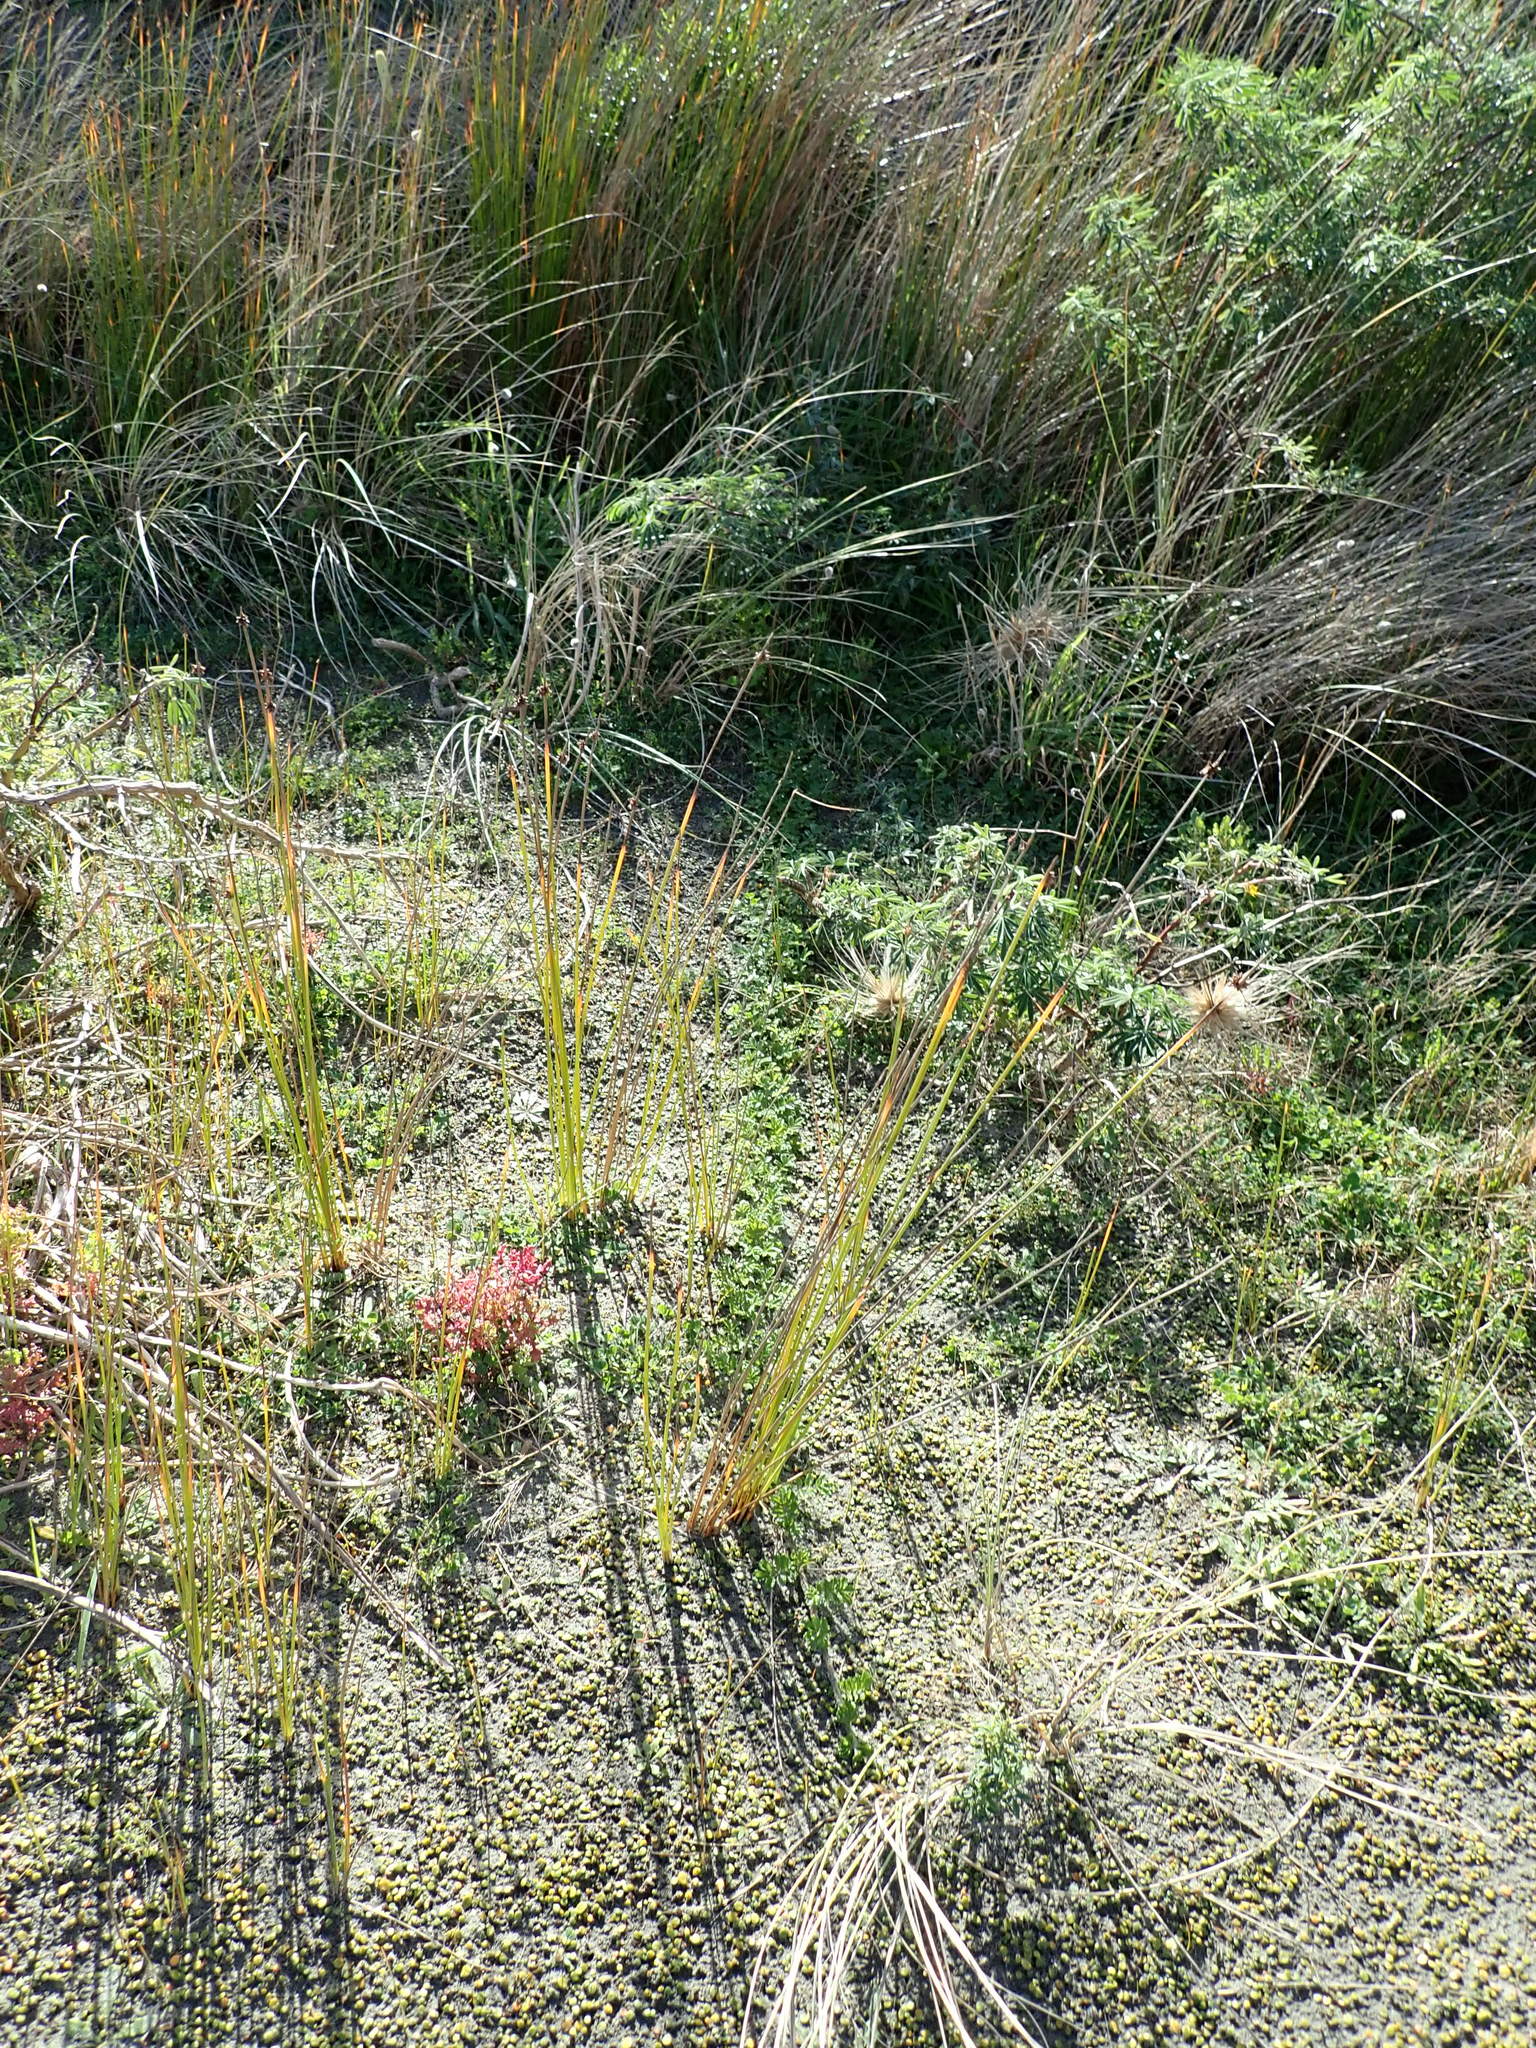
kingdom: Plantae
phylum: Tracheophyta
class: Magnoliopsida
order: Rosales
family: Rosaceae
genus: Acaena
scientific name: Acaena novae-zelandiae
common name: Pirri-pirri-bur
